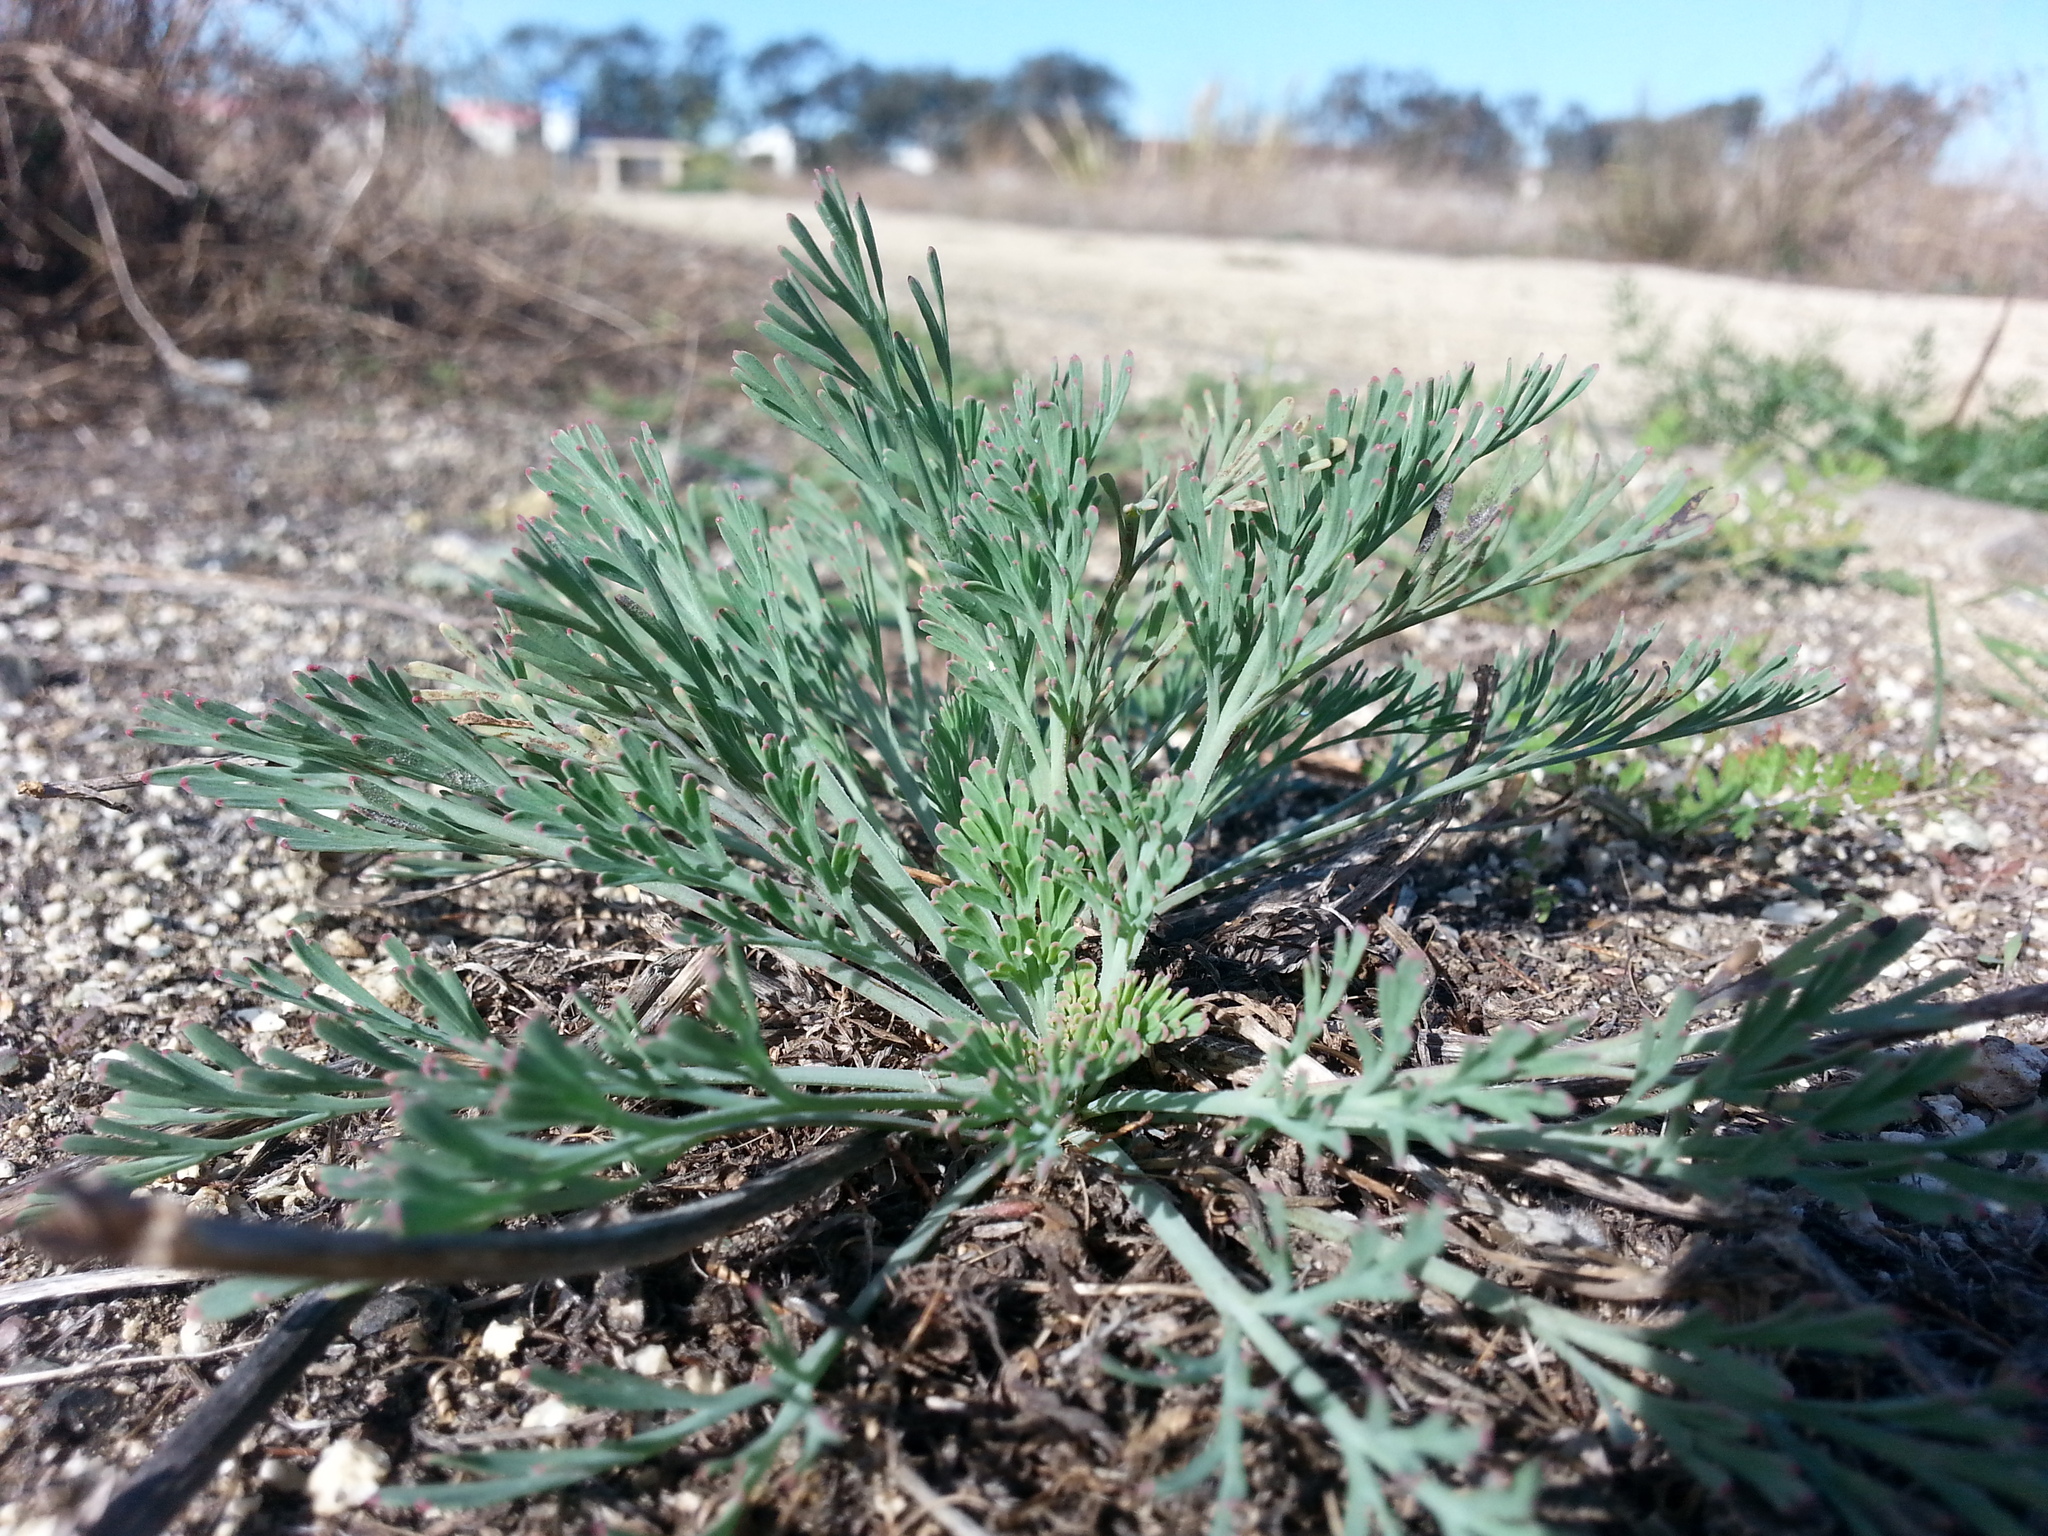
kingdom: Plantae
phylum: Tracheophyta
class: Magnoliopsida
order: Ranunculales
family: Papaveraceae
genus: Eschscholzia
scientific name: Eschscholzia californica
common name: California poppy
